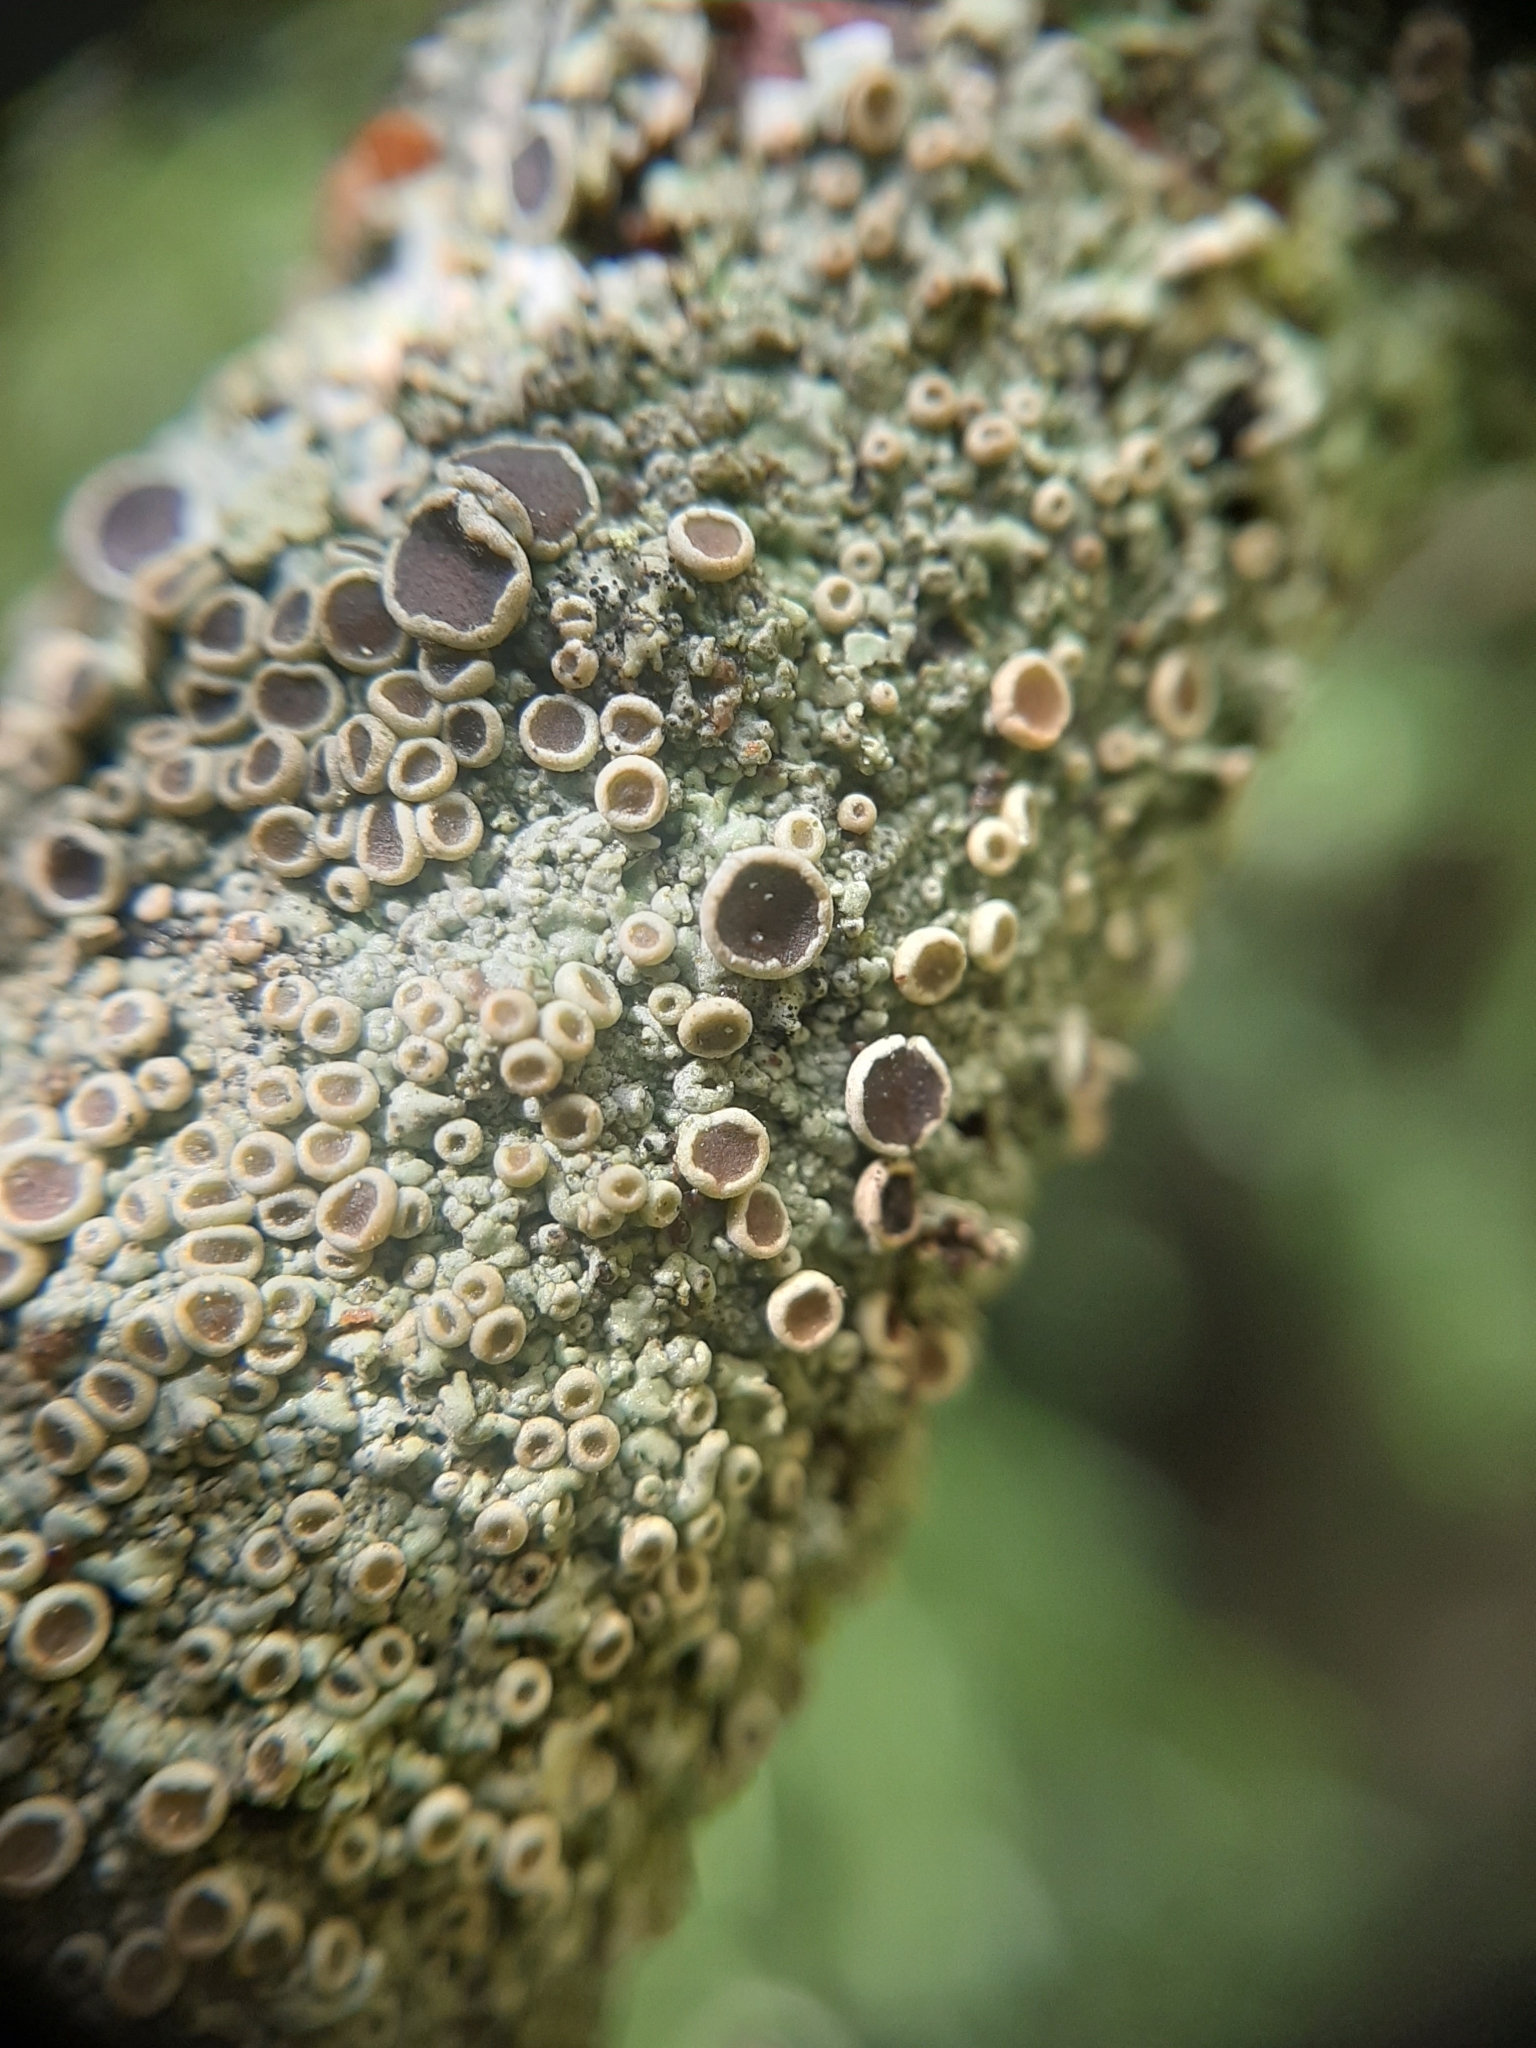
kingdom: Fungi
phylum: Ascomycota
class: Lecanoromycetes
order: Caliciales
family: Physciaceae
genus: Hyperphyscia
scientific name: Hyperphyscia
